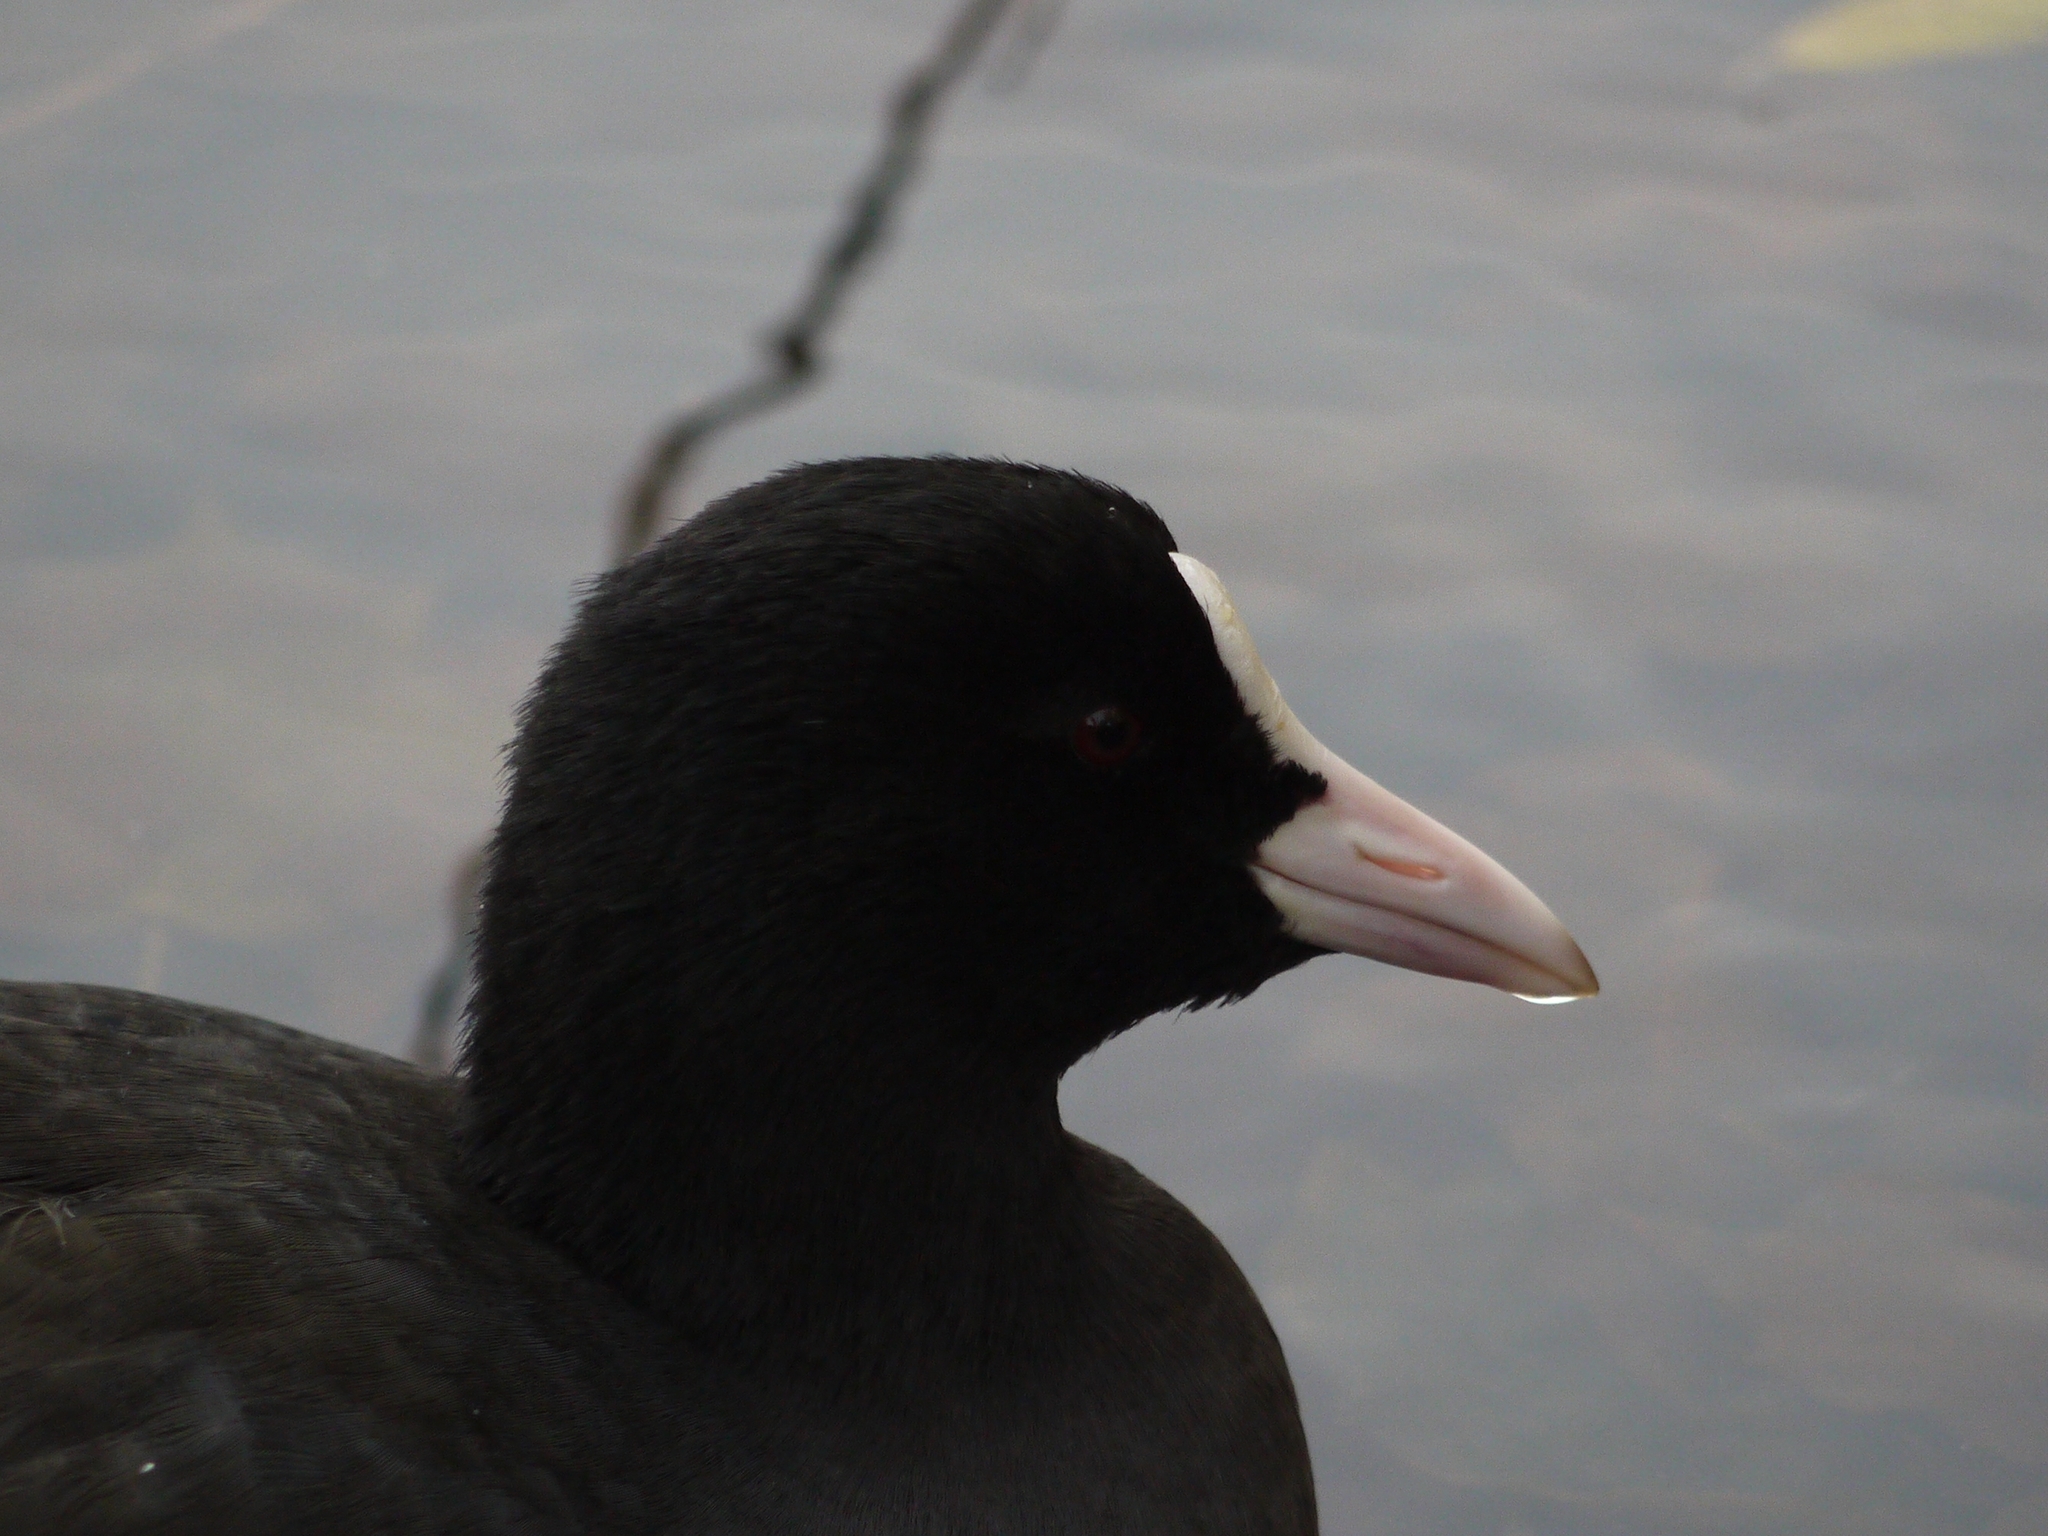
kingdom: Animalia
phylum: Chordata
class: Aves
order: Gruiformes
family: Rallidae
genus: Fulica
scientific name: Fulica atra
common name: Eurasian coot
